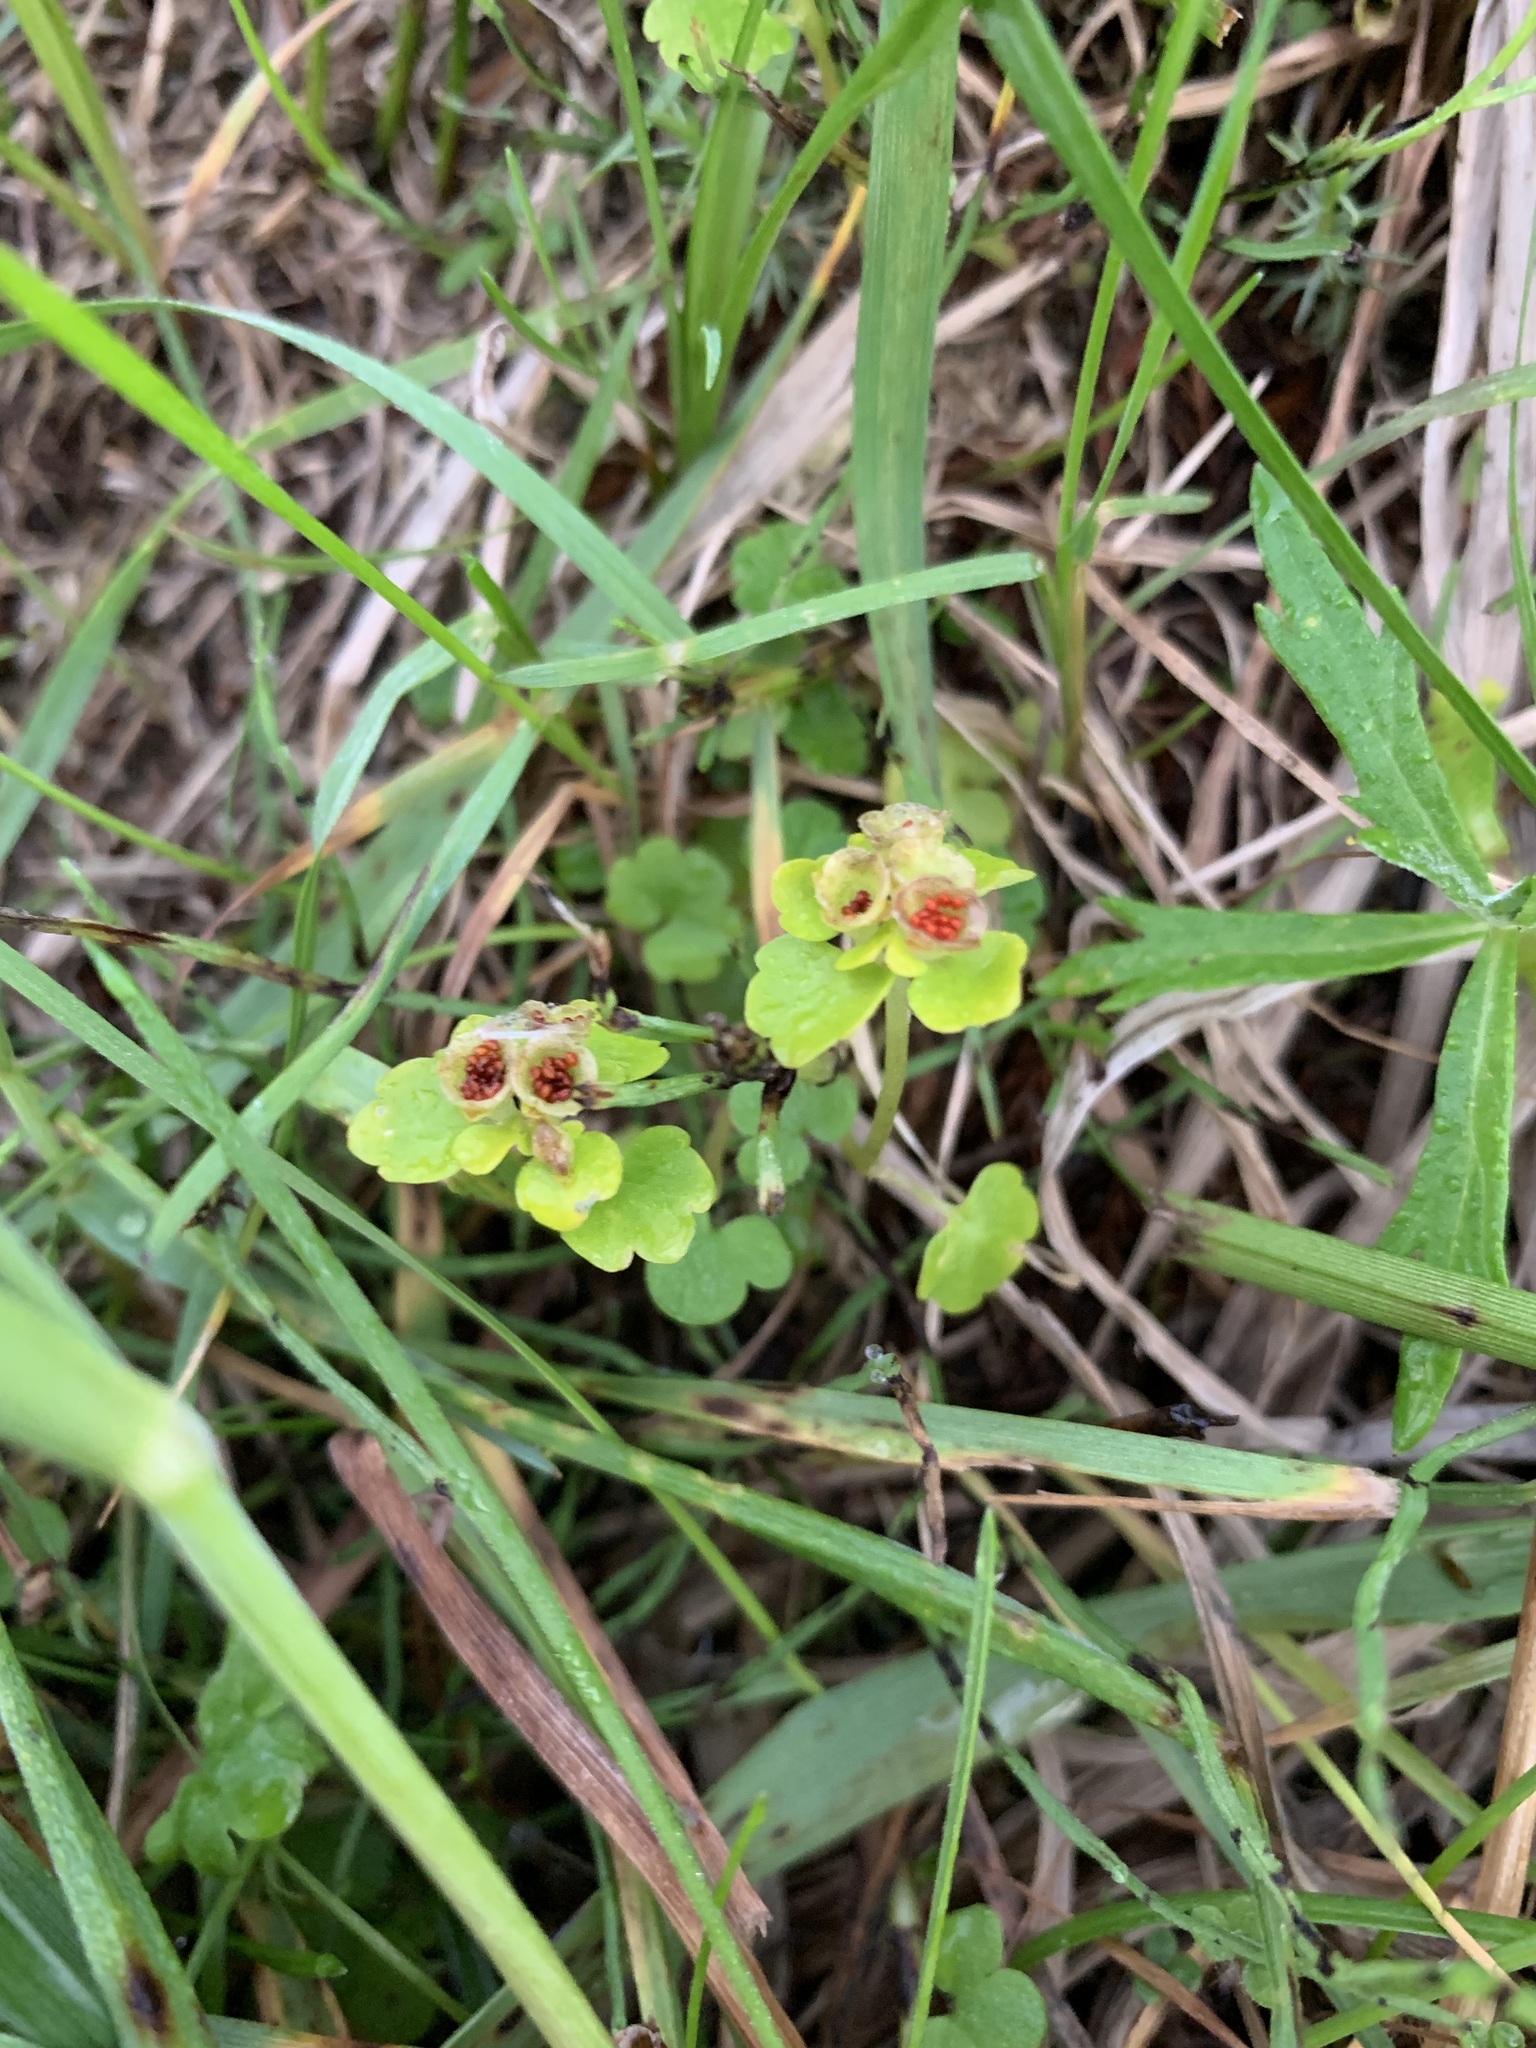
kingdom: Plantae
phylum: Tracheophyta
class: Magnoliopsida
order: Saxifragales
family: Saxifragaceae
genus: Chrysosplenium
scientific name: Chrysosplenium tetrandrum
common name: Green saxifrage
